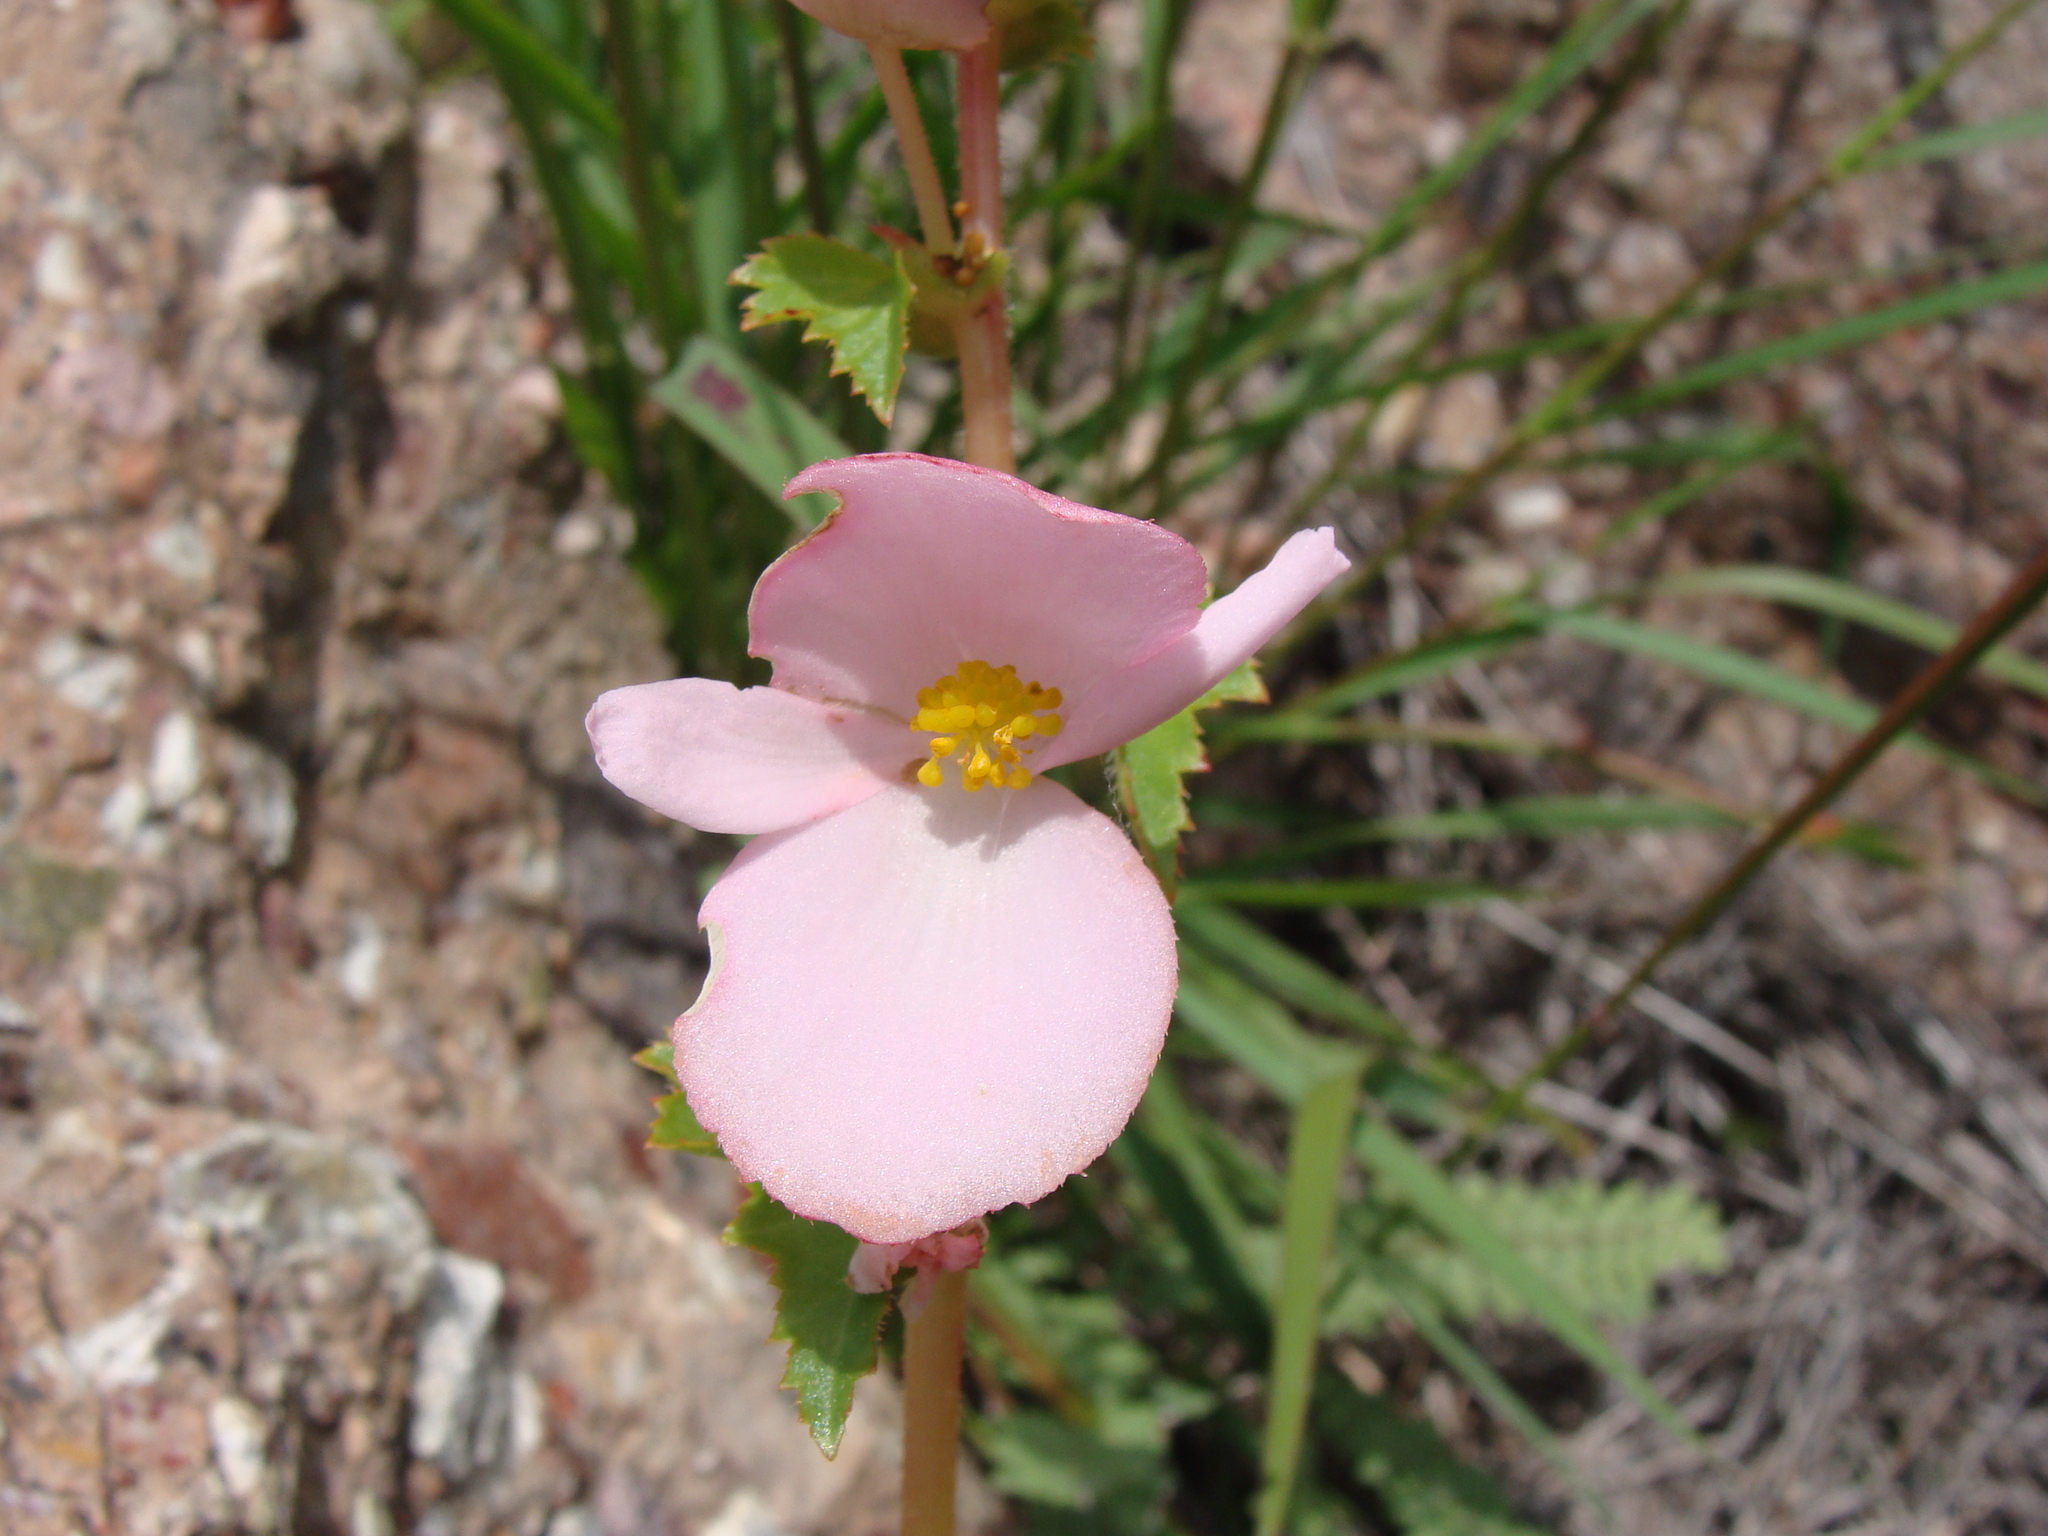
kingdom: Plantae
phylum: Tracheophyta
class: Magnoliopsida
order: Cucurbitales
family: Begoniaceae
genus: Begonia
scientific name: Begonia gracilis
